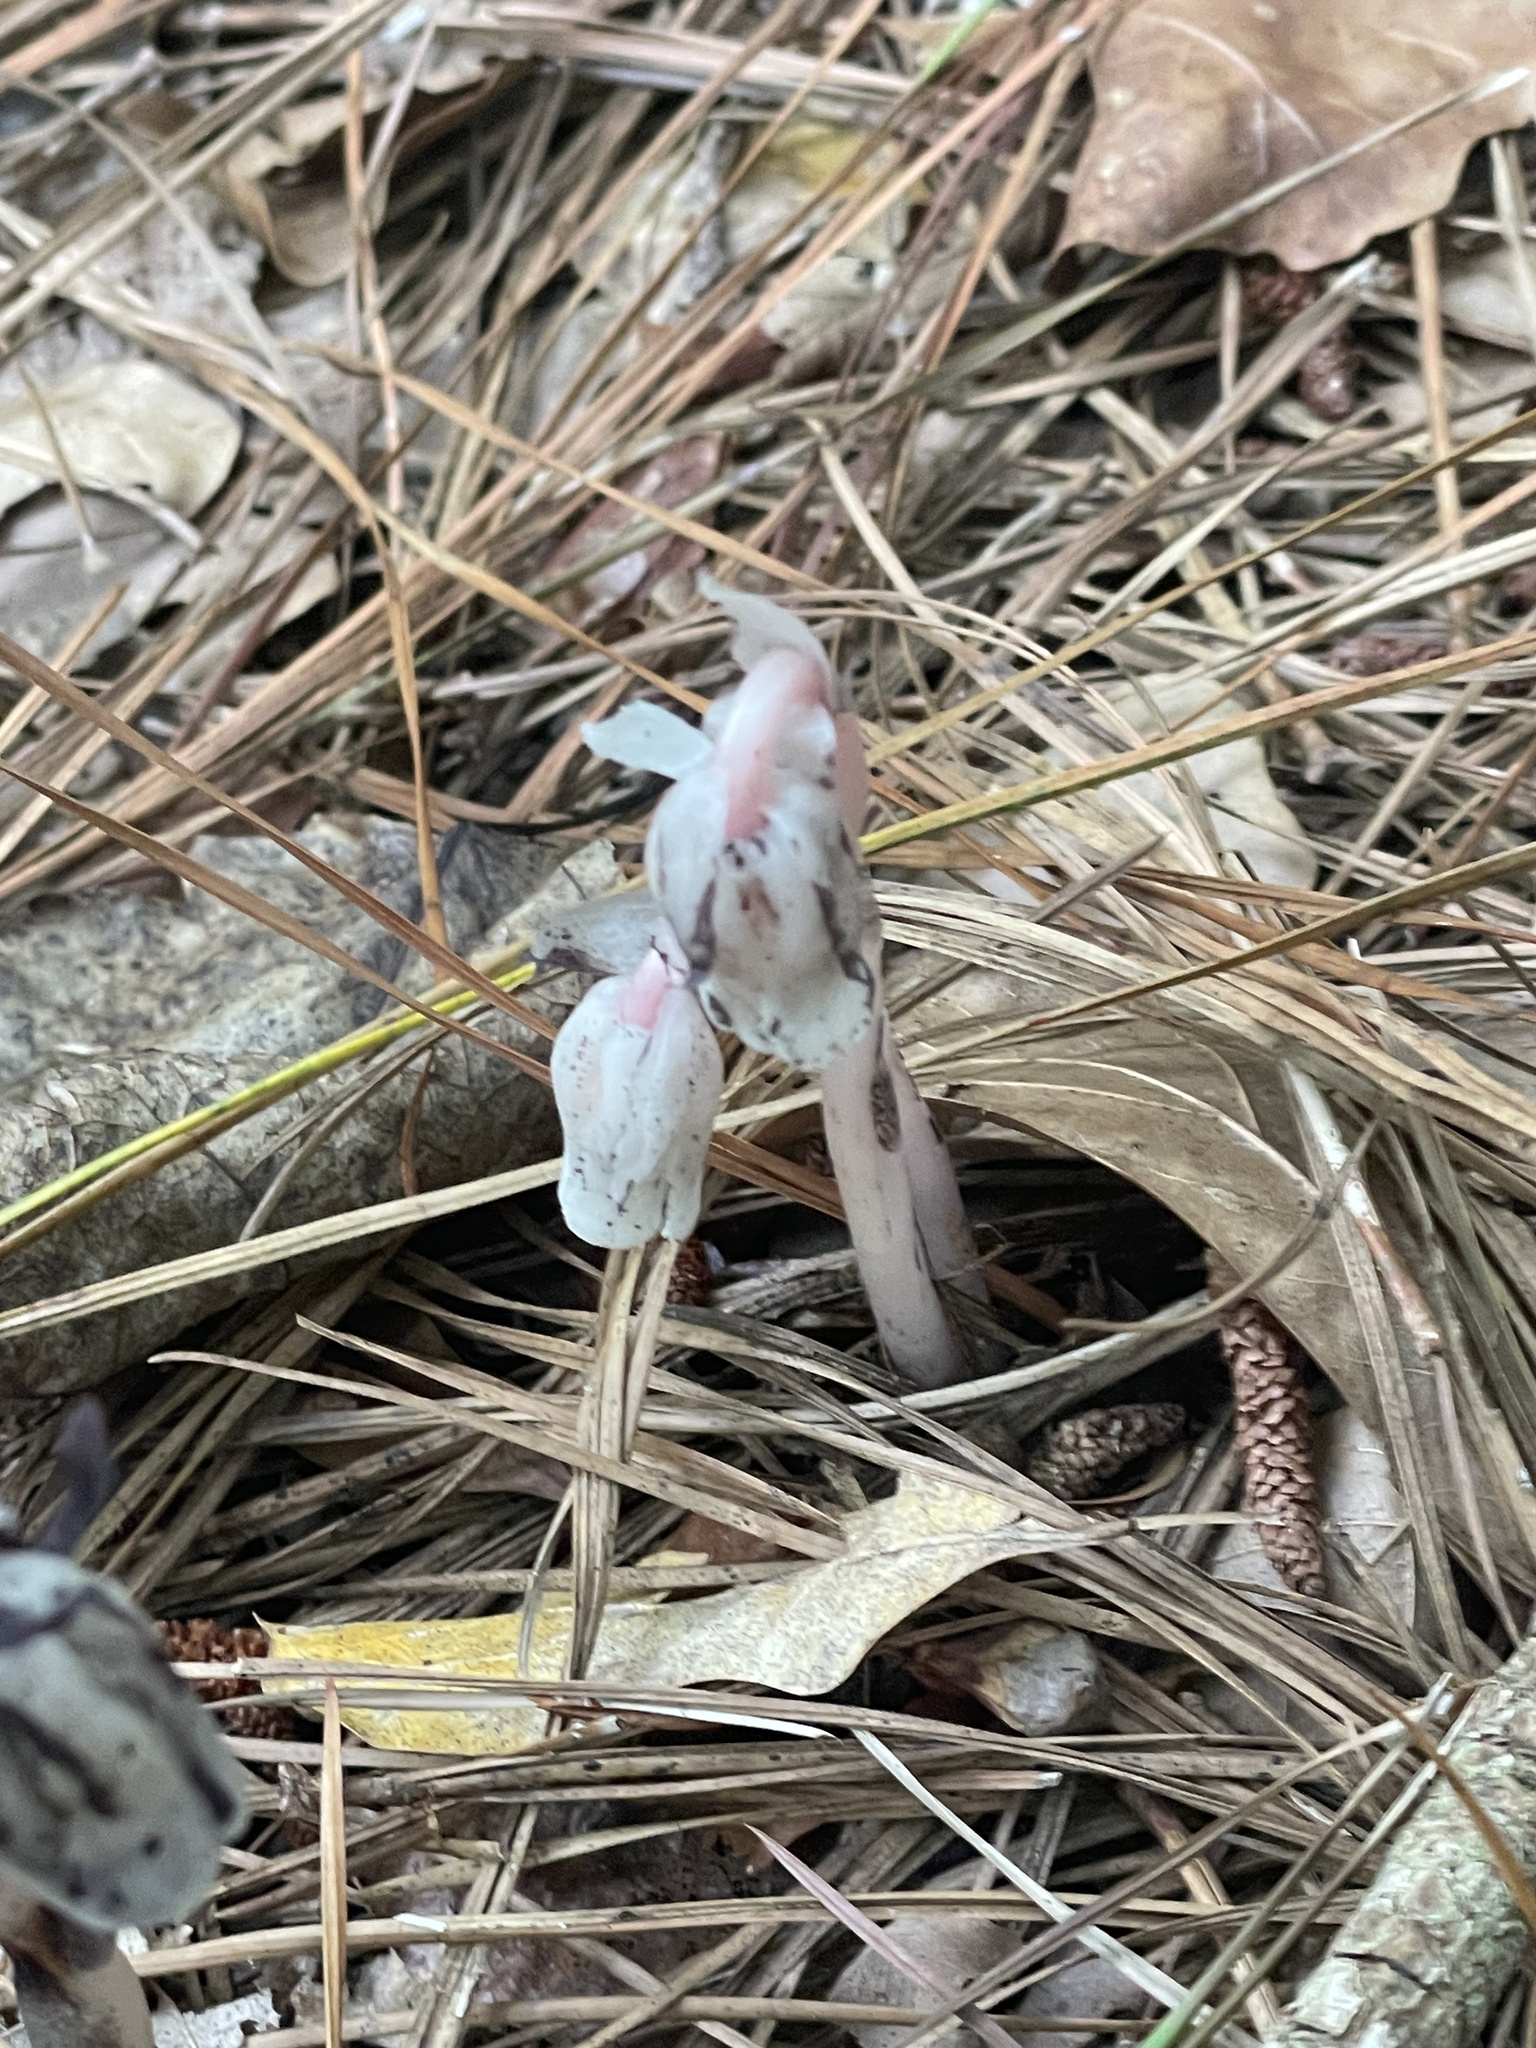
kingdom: Plantae
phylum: Tracheophyta
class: Magnoliopsida
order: Ericales
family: Ericaceae
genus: Monotropa
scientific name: Monotropa uniflora
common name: Convulsion root
